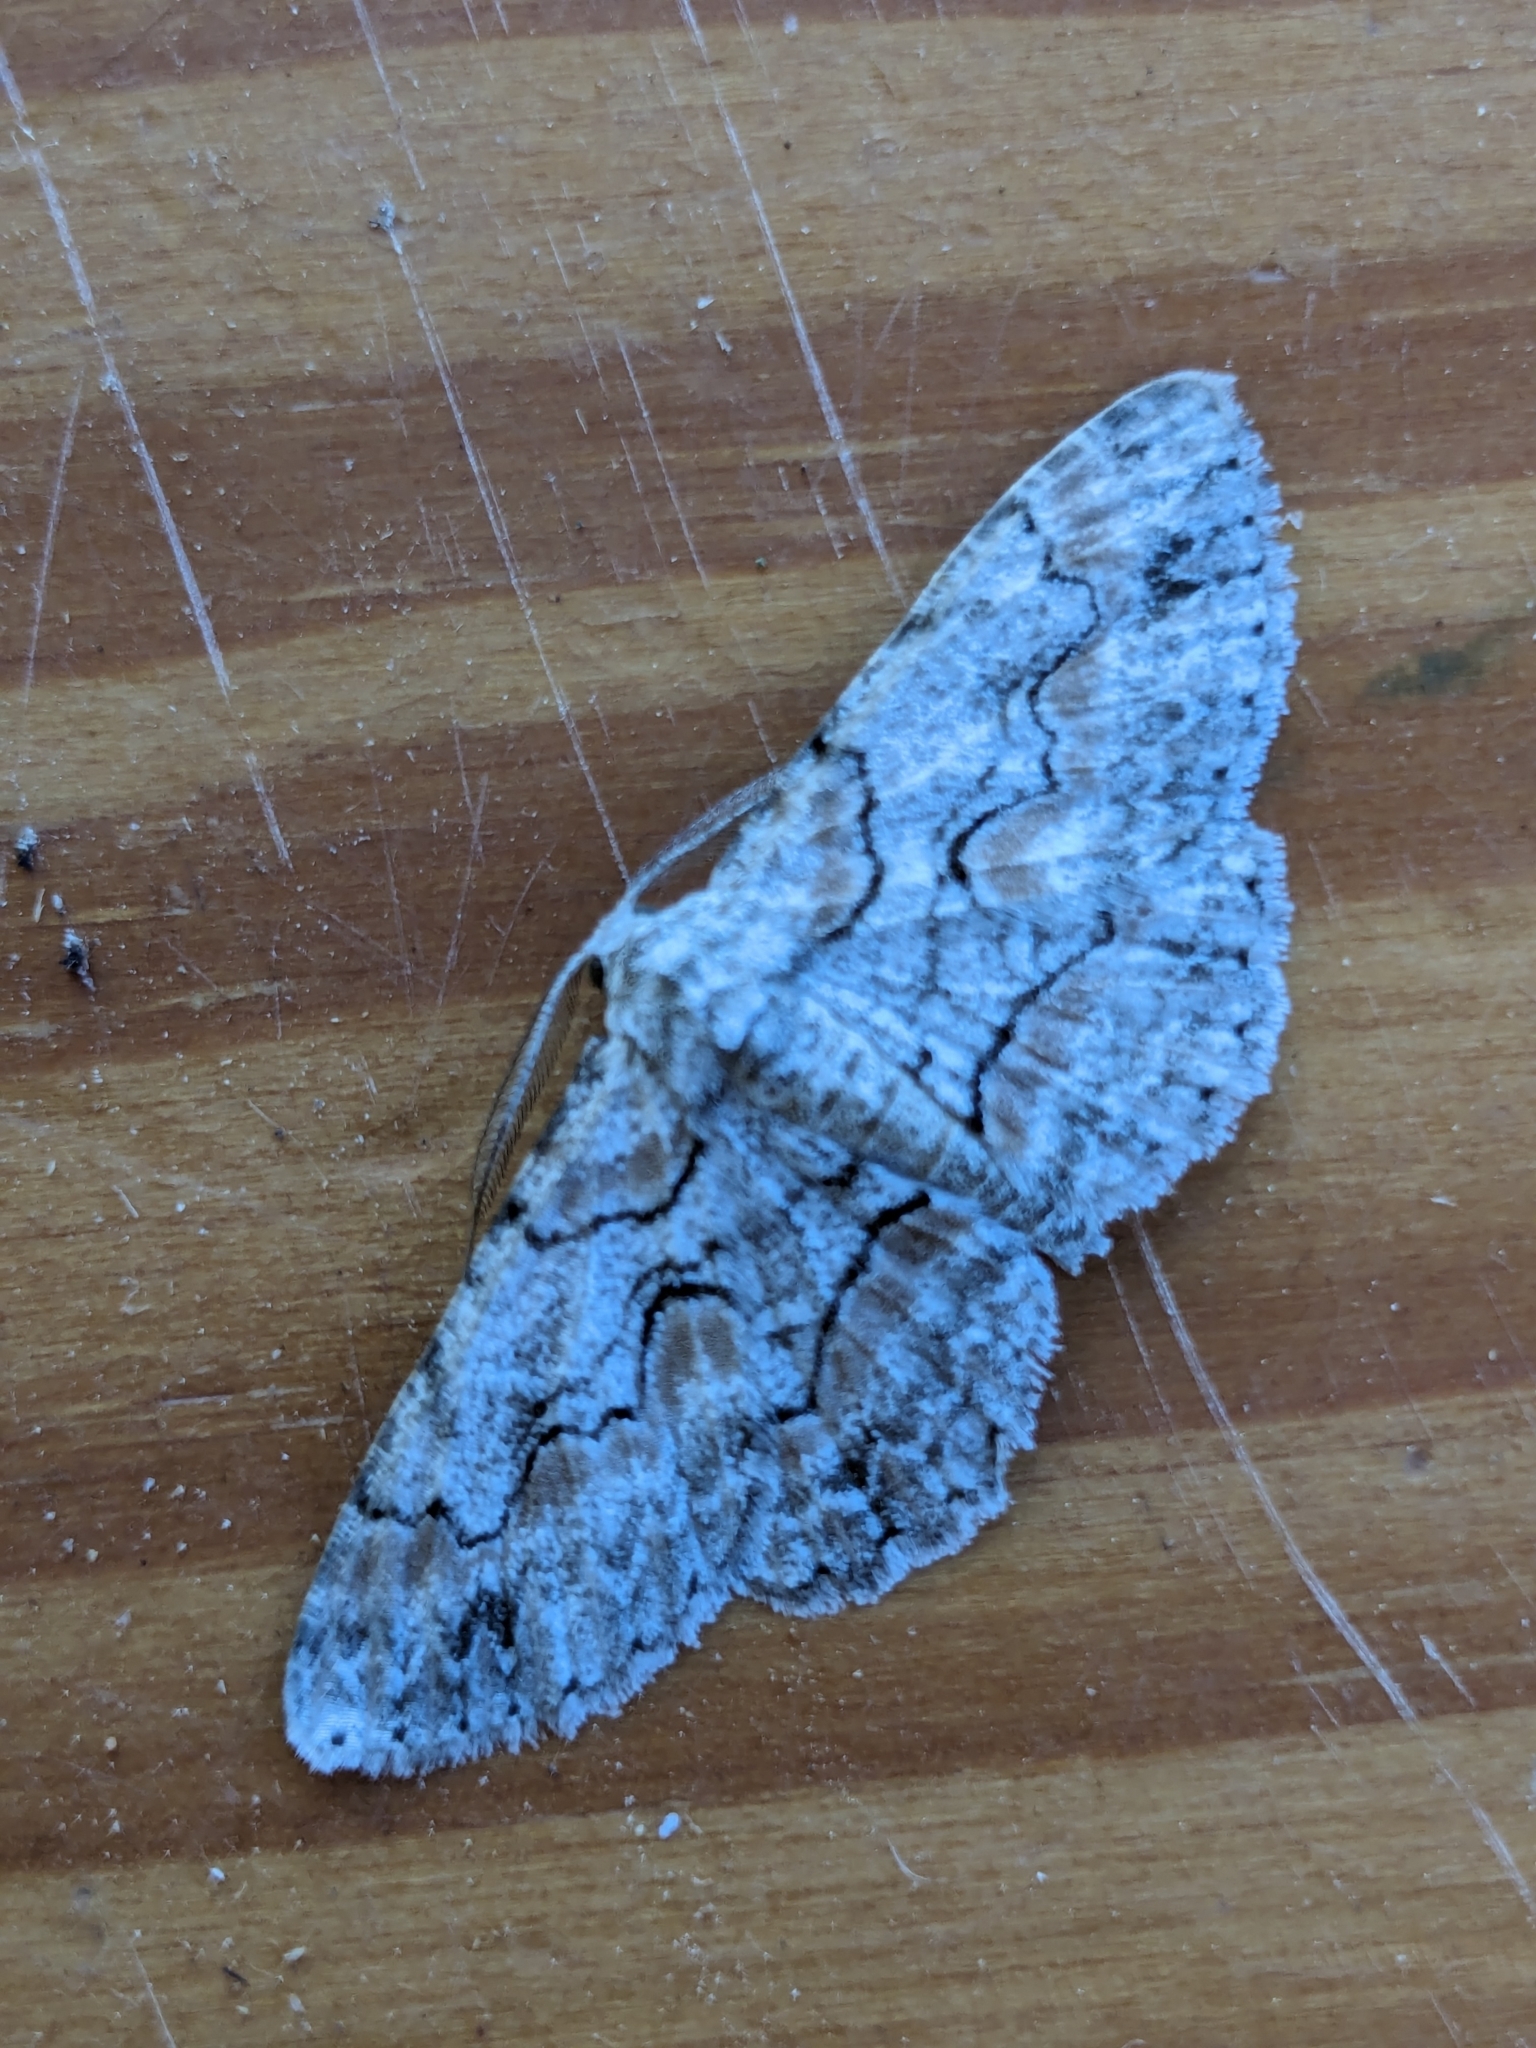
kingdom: Animalia
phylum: Arthropoda
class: Insecta
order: Lepidoptera
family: Geometridae
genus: Iridopsis
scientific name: Iridopsis defectaria
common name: Brown-shaded gray
